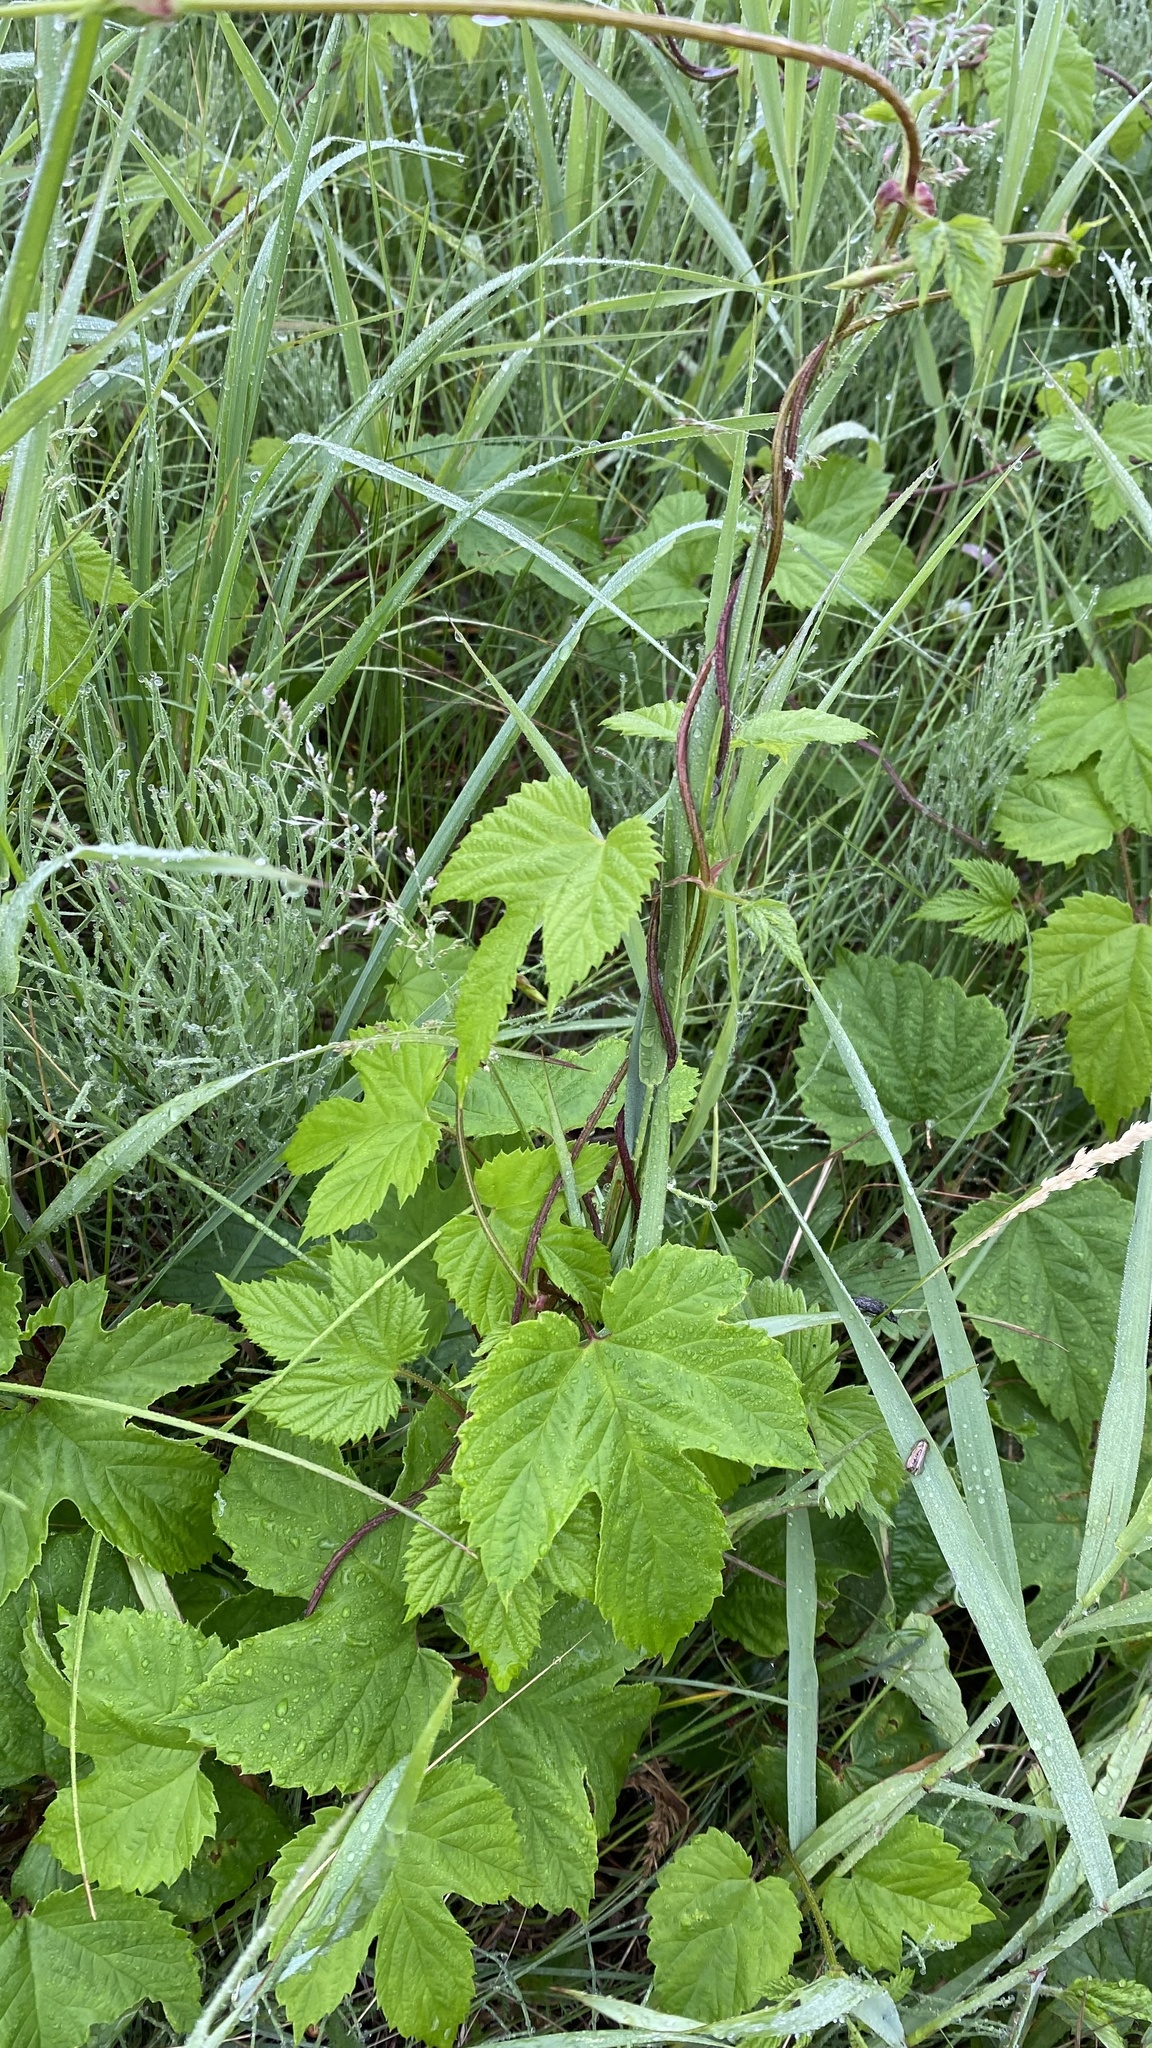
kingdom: Plantae
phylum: Tracheophyta
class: Magnoliopsida
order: Rosales
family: Cannabaceae
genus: Humulus
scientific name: Humulus lupulus
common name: Hop
